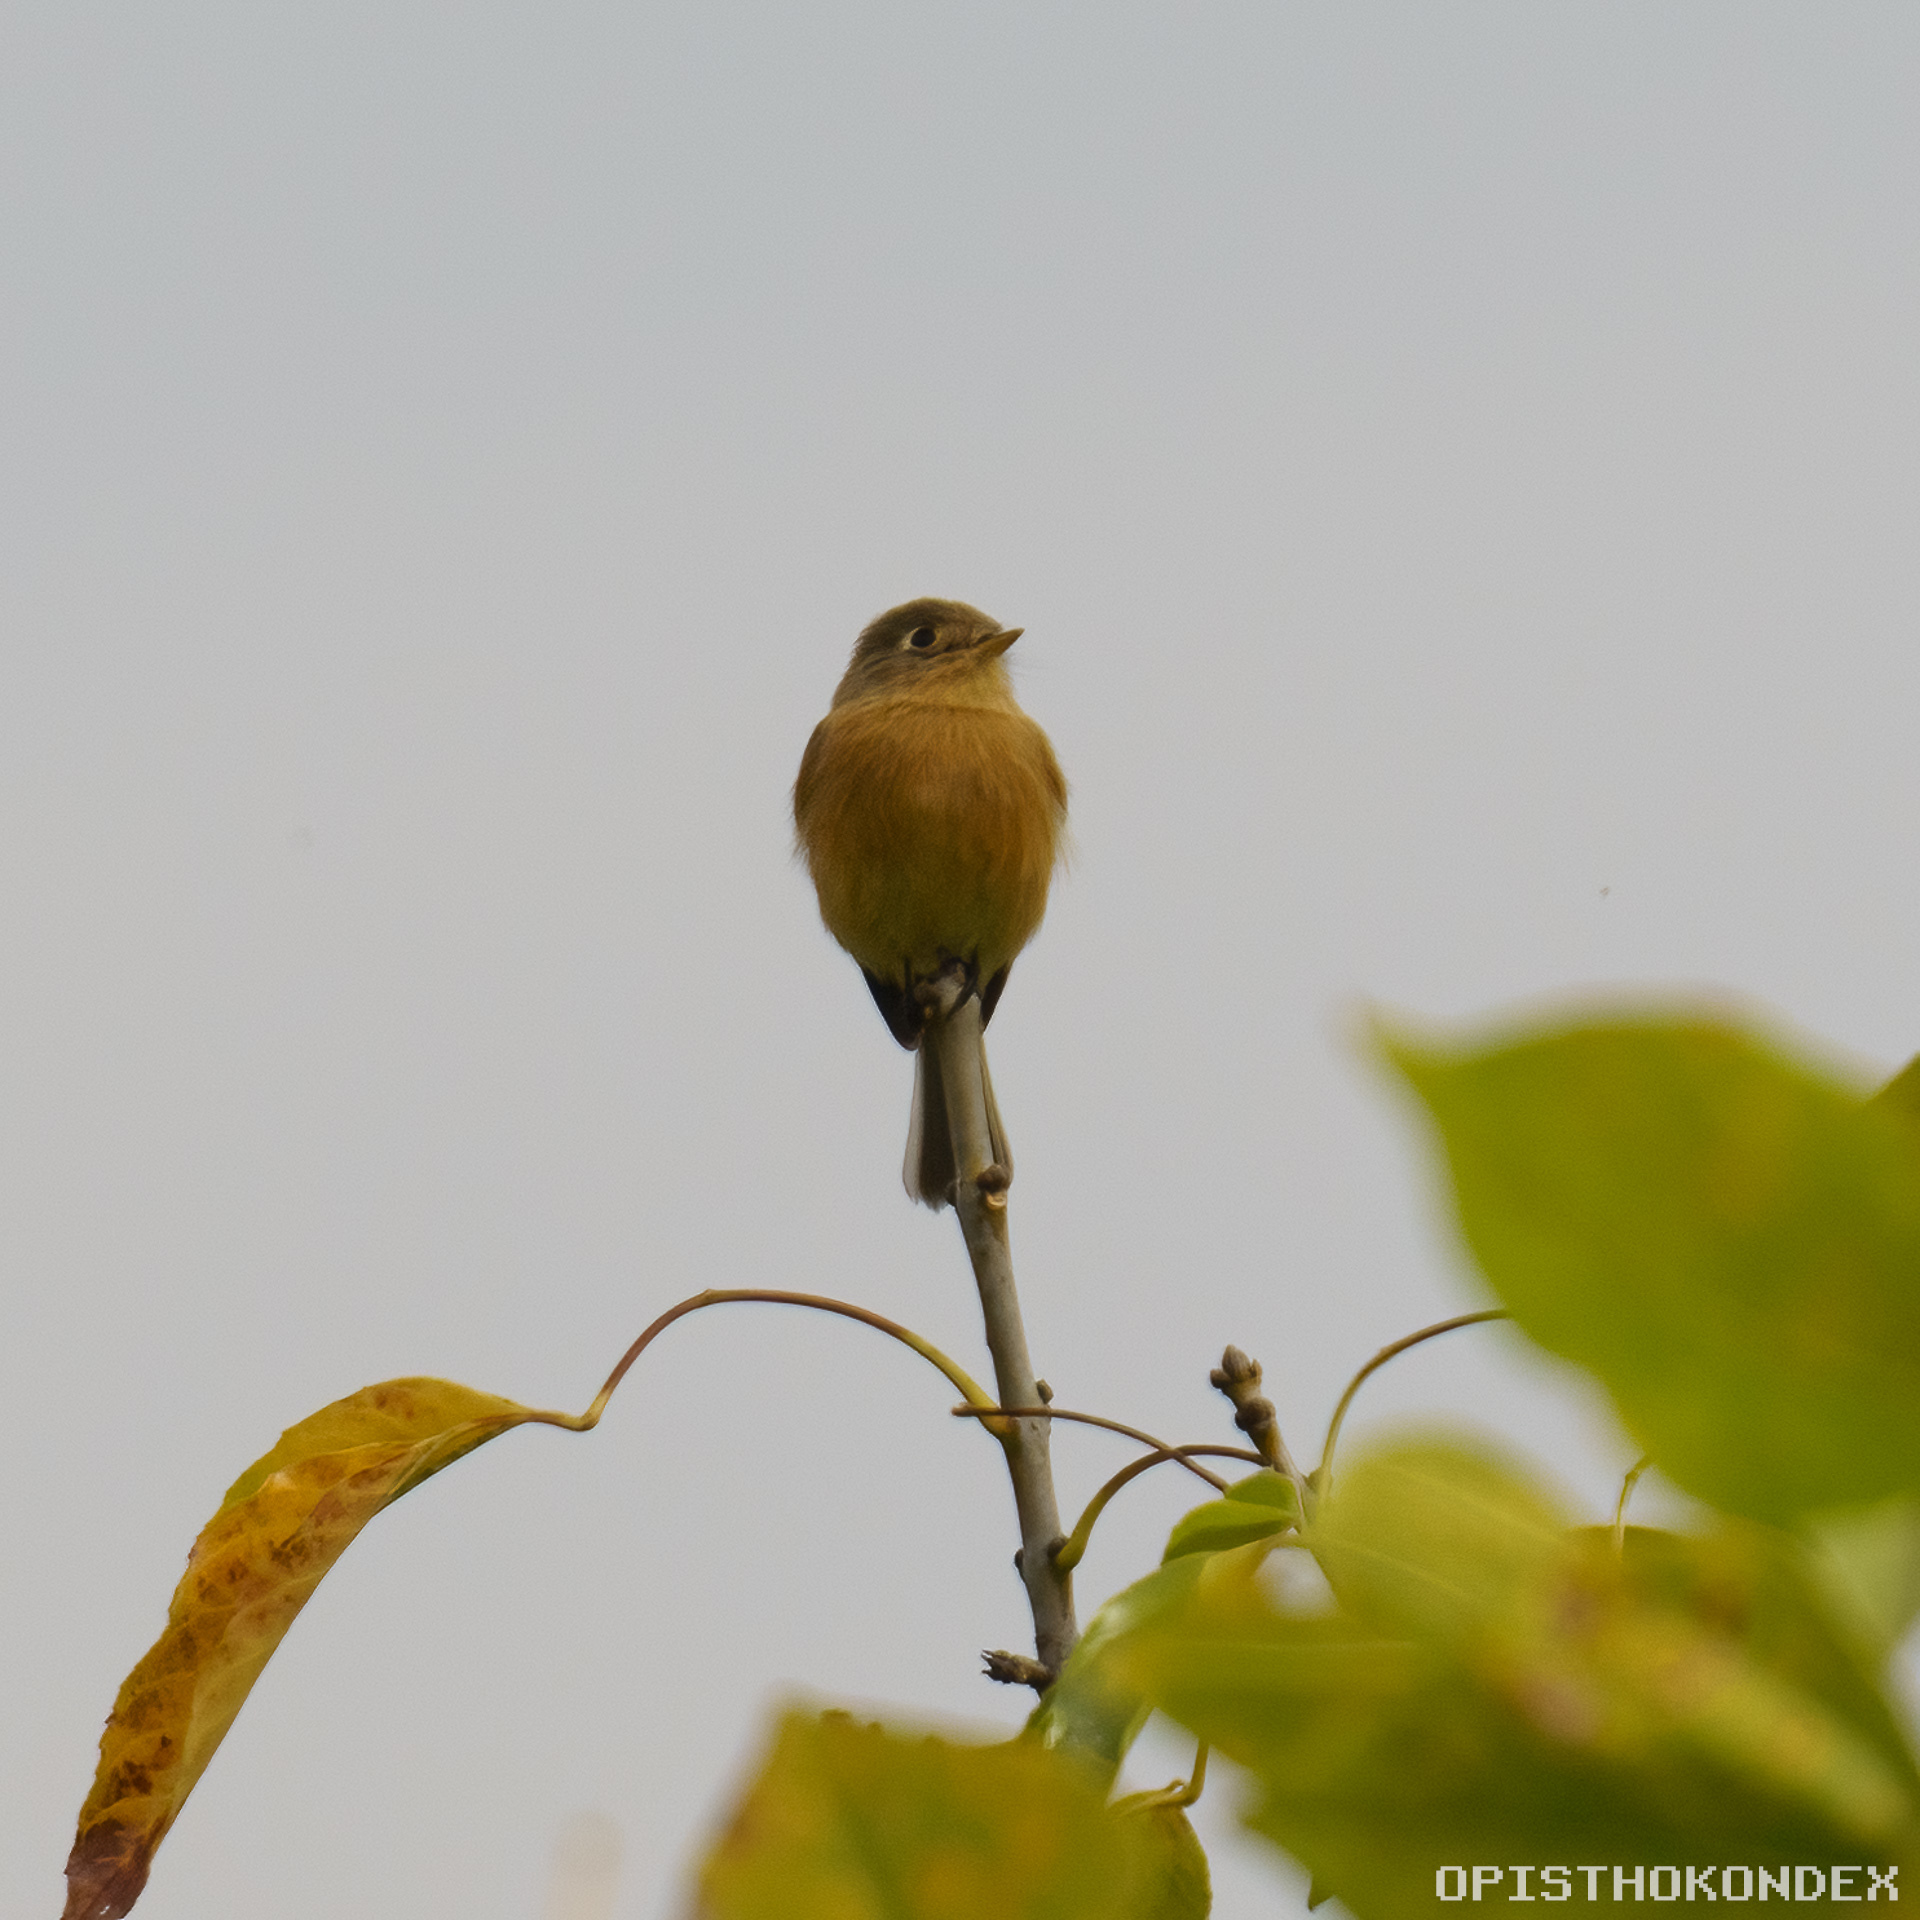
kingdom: Animalia
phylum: Chordata
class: Aves
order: Passeriformes
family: Tyrannidae
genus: Empidonax
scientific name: Empidonax fulvifrons
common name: Buff-breasted flycatcher
